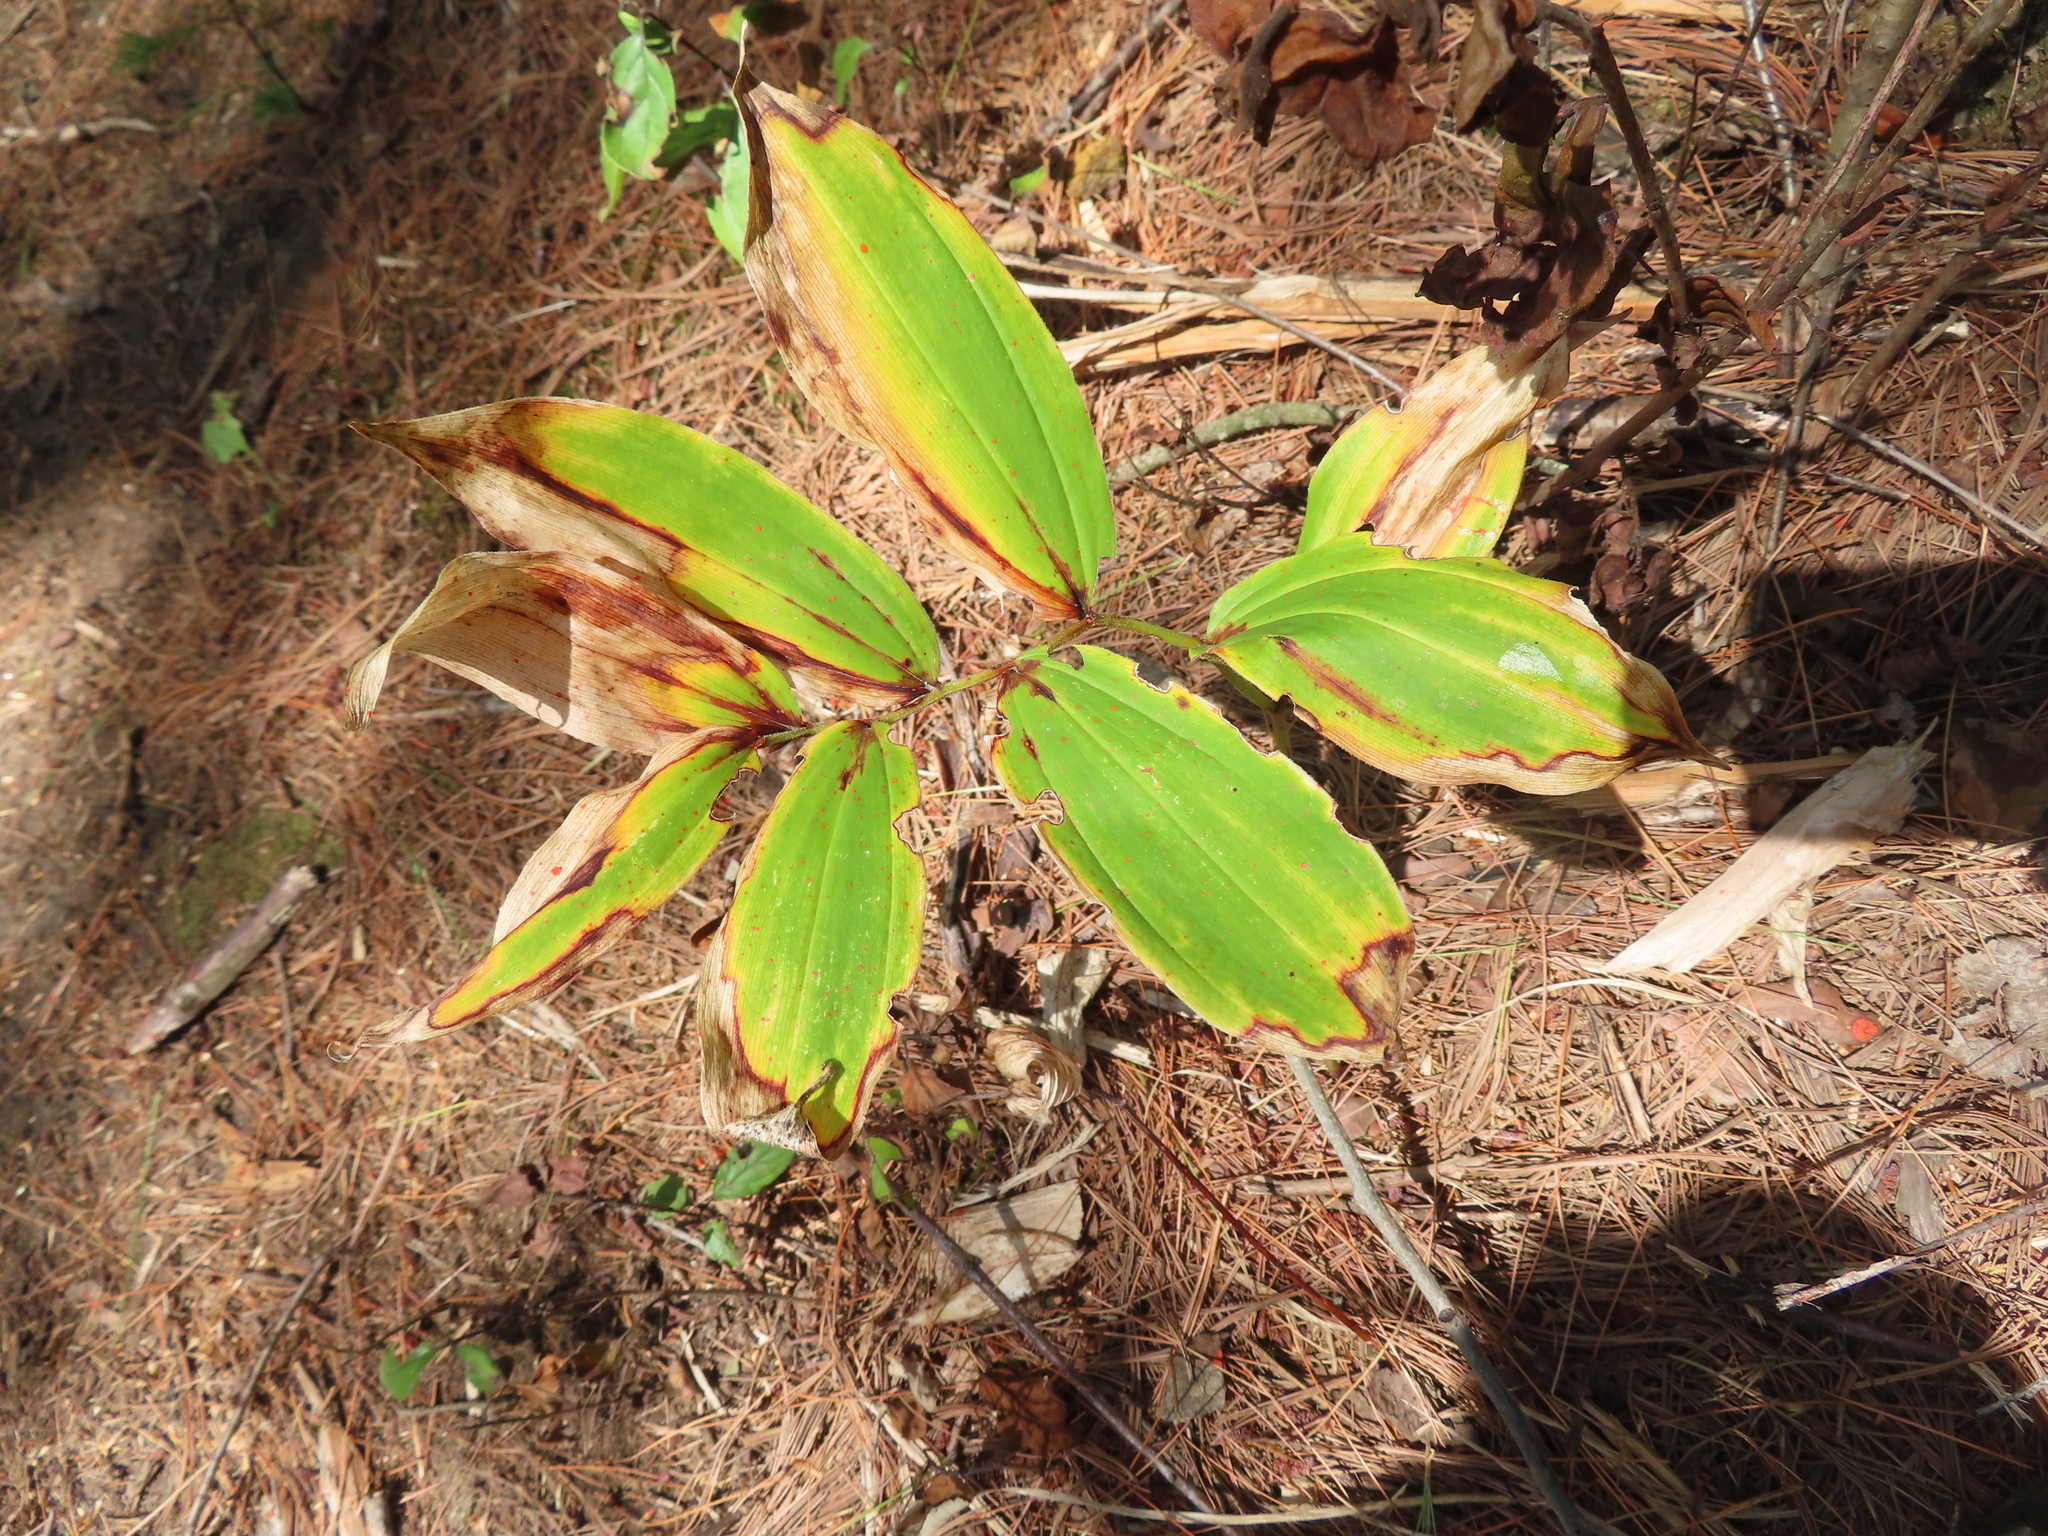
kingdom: Plantae
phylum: Tracheophyta
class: Liliopsida
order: Asparagales
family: Asparagaceae
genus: Maianthemum
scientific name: Maianthemum racemosum
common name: False spikenard
